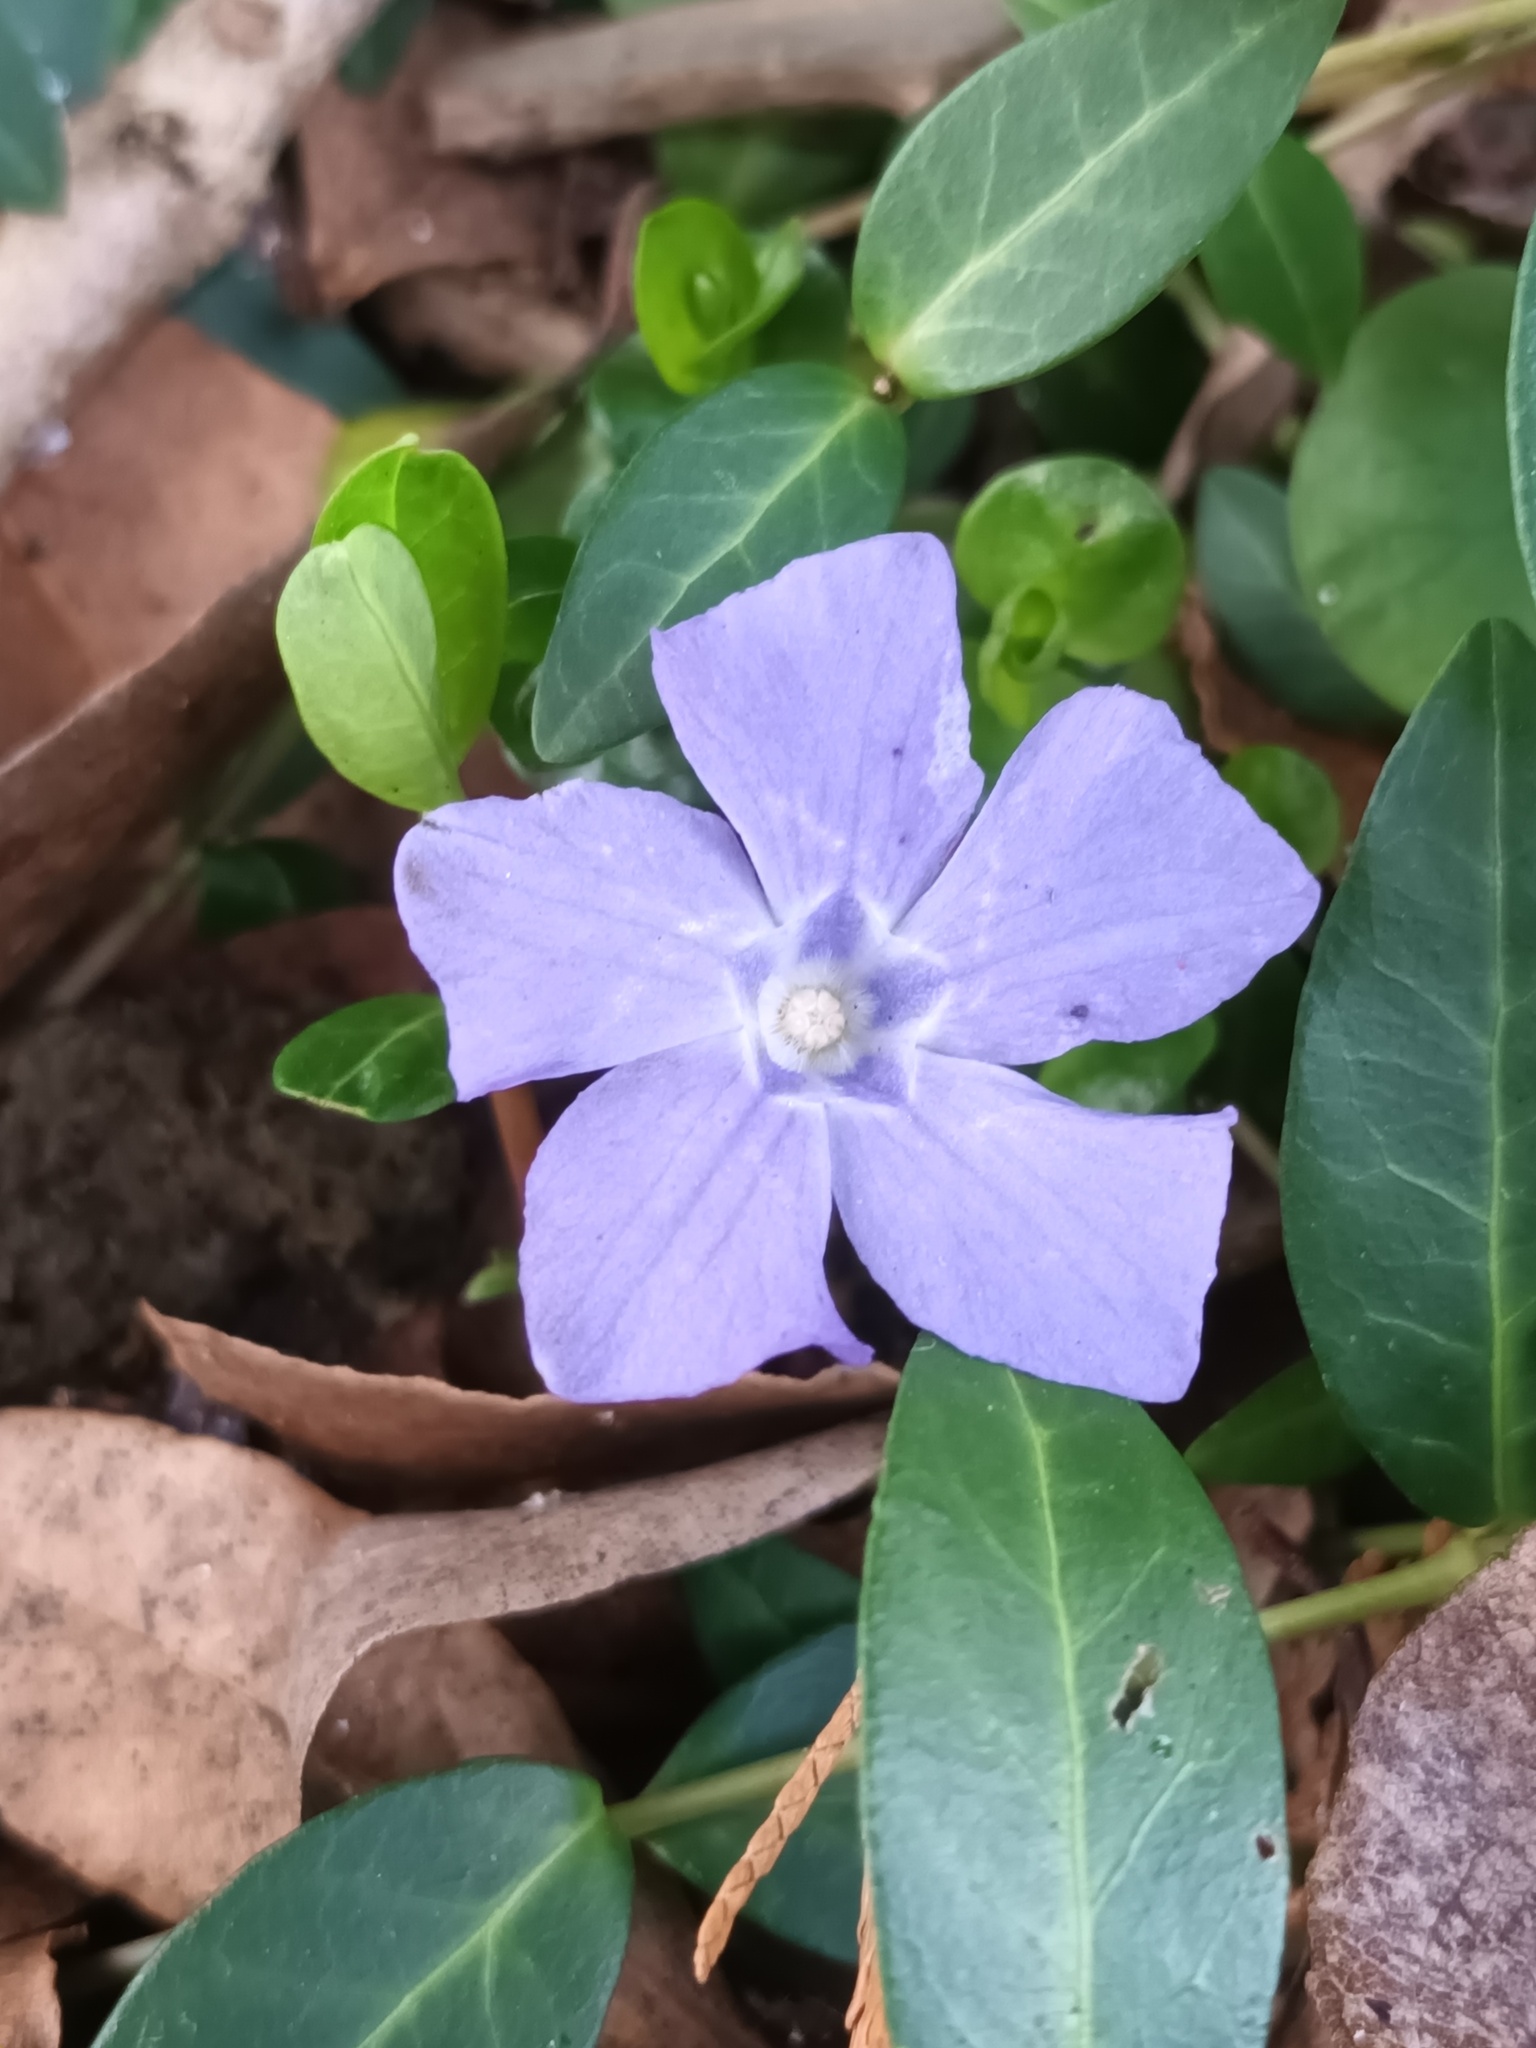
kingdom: Plantae
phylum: Tracheophyta
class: Magnoliopsida
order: Gentianales
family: Apocynaceae
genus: Vinca
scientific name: Vinca minor
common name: Lesser periwinkle
